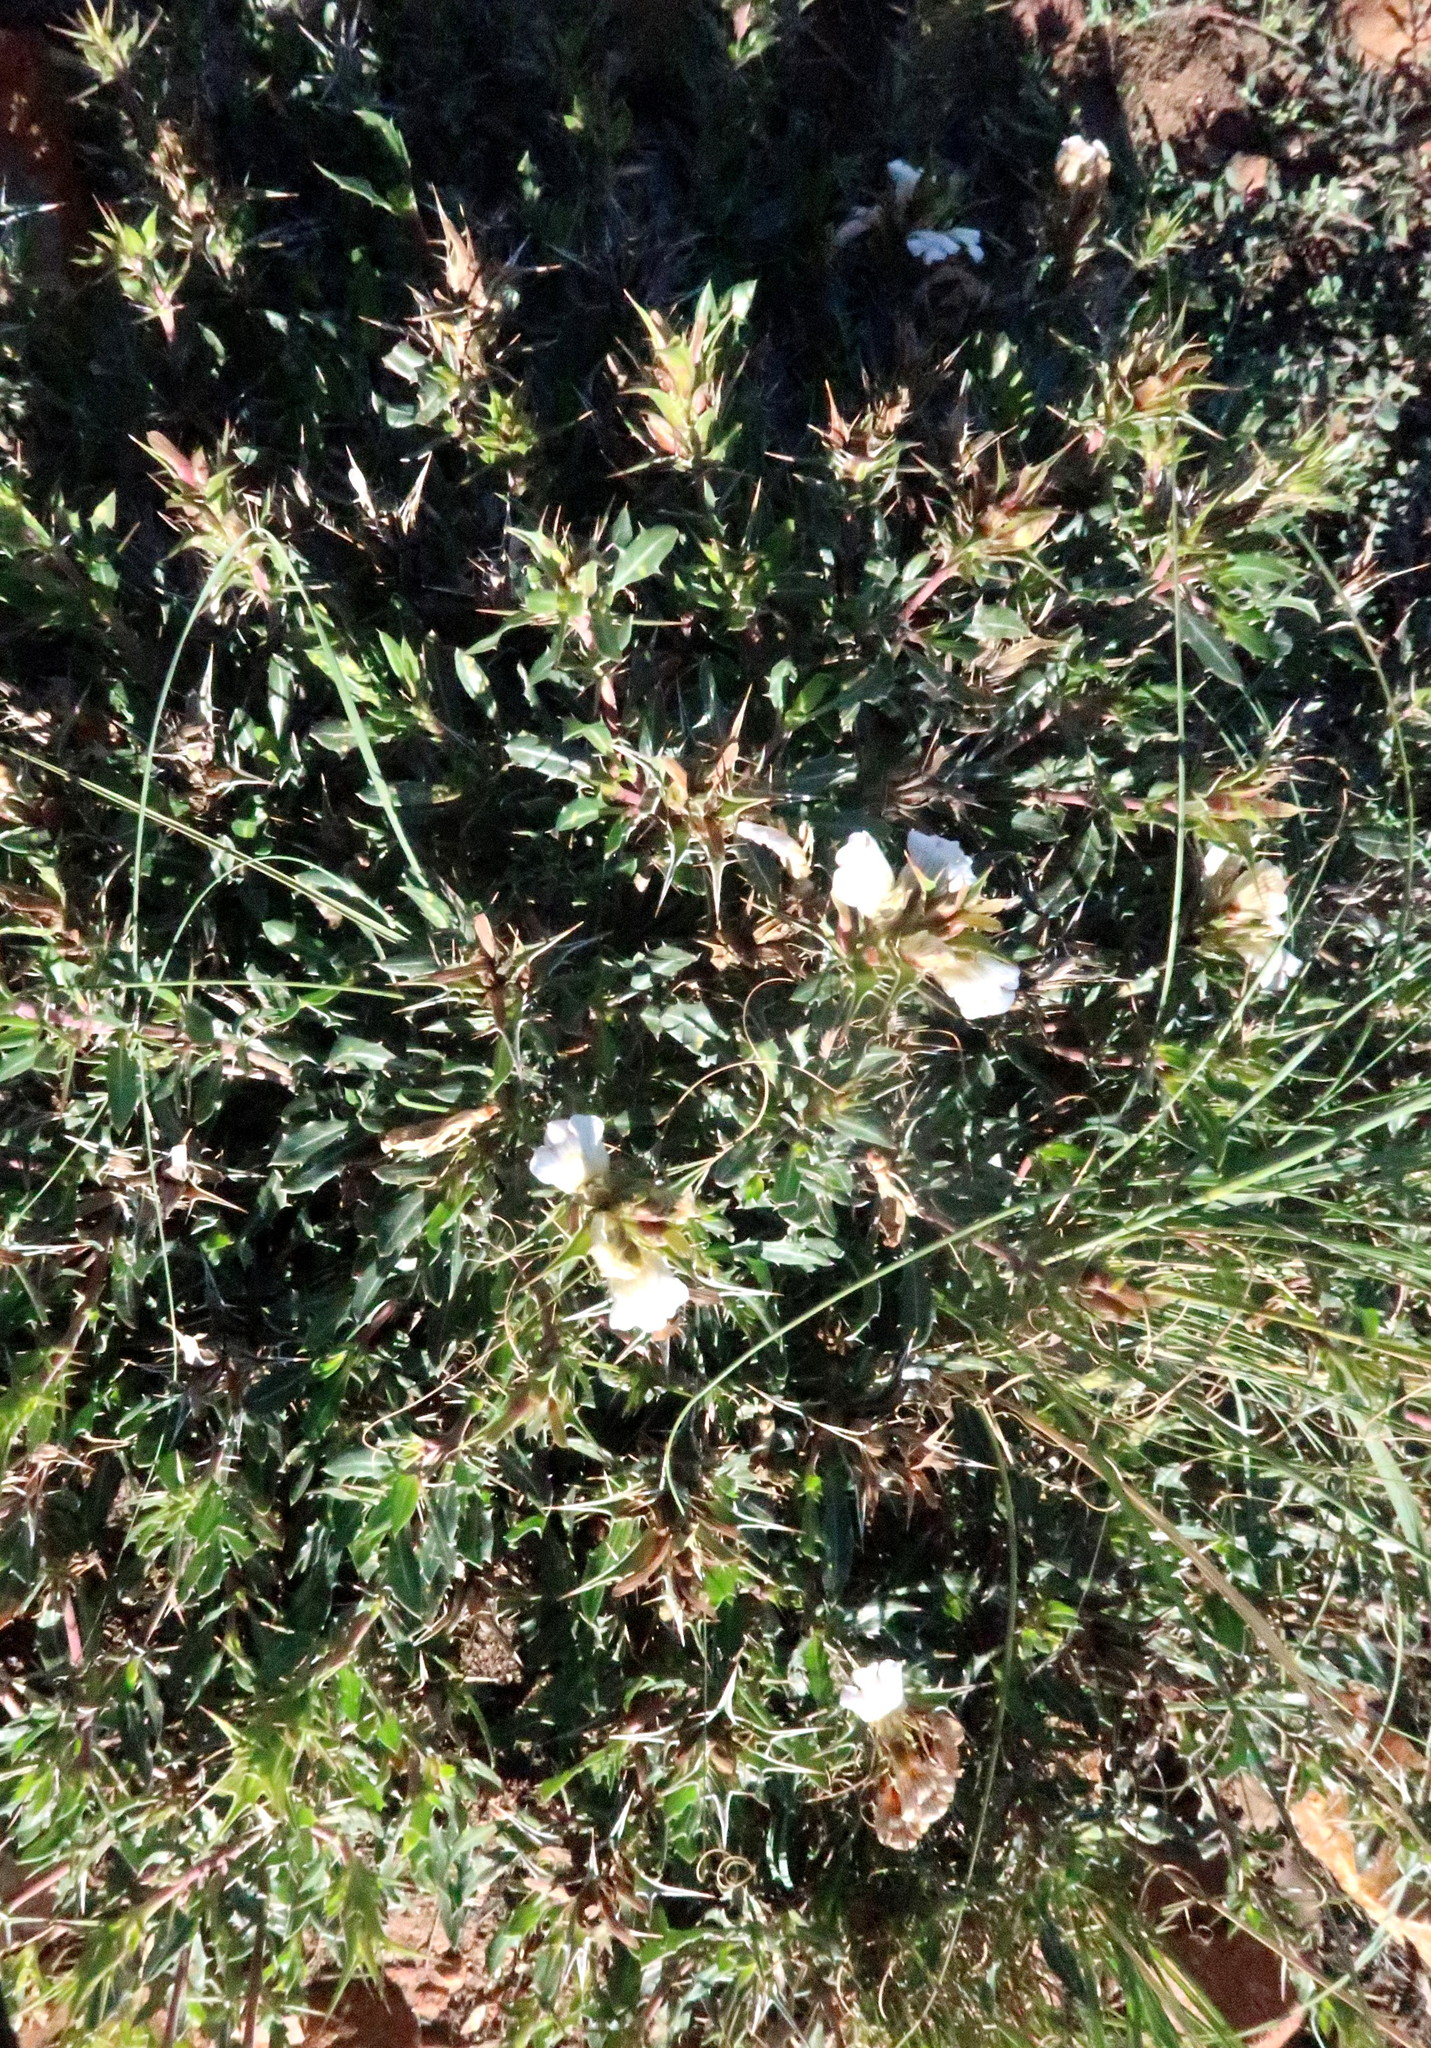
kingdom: Plantae
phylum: Tracheophyta
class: Magnoliopsida
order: Lamiales
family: Acanthaceae
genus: Blepharis
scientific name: Blepharis capensis
